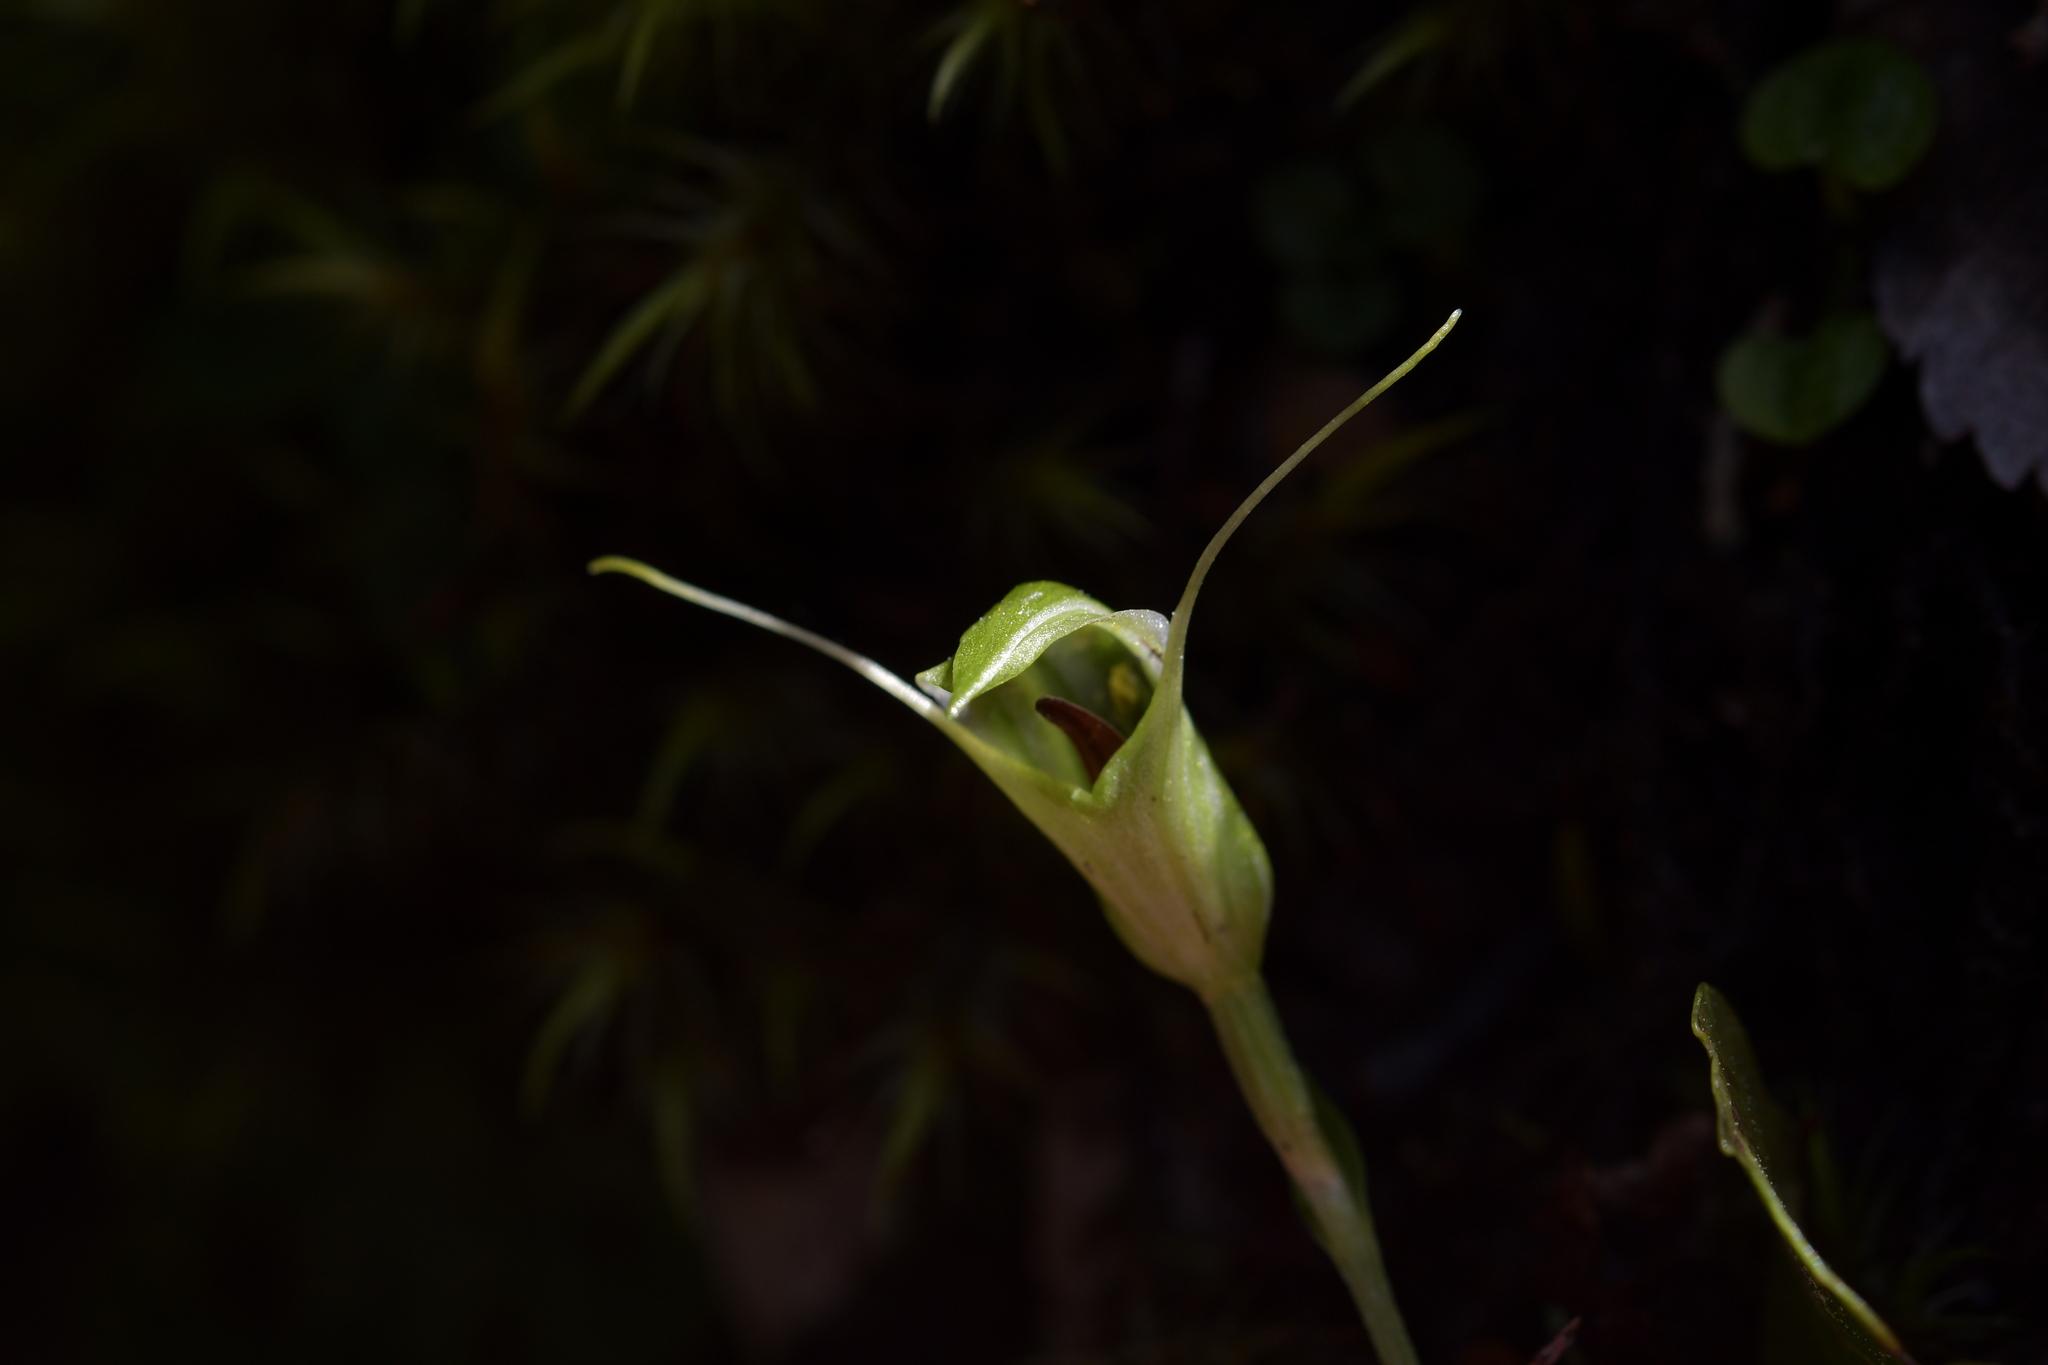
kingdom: Plantae
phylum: Tracheophyta
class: Liliopsida
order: Asparagales
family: Orchidaceae
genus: Pterostylis
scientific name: Pterostylis trullifolia
